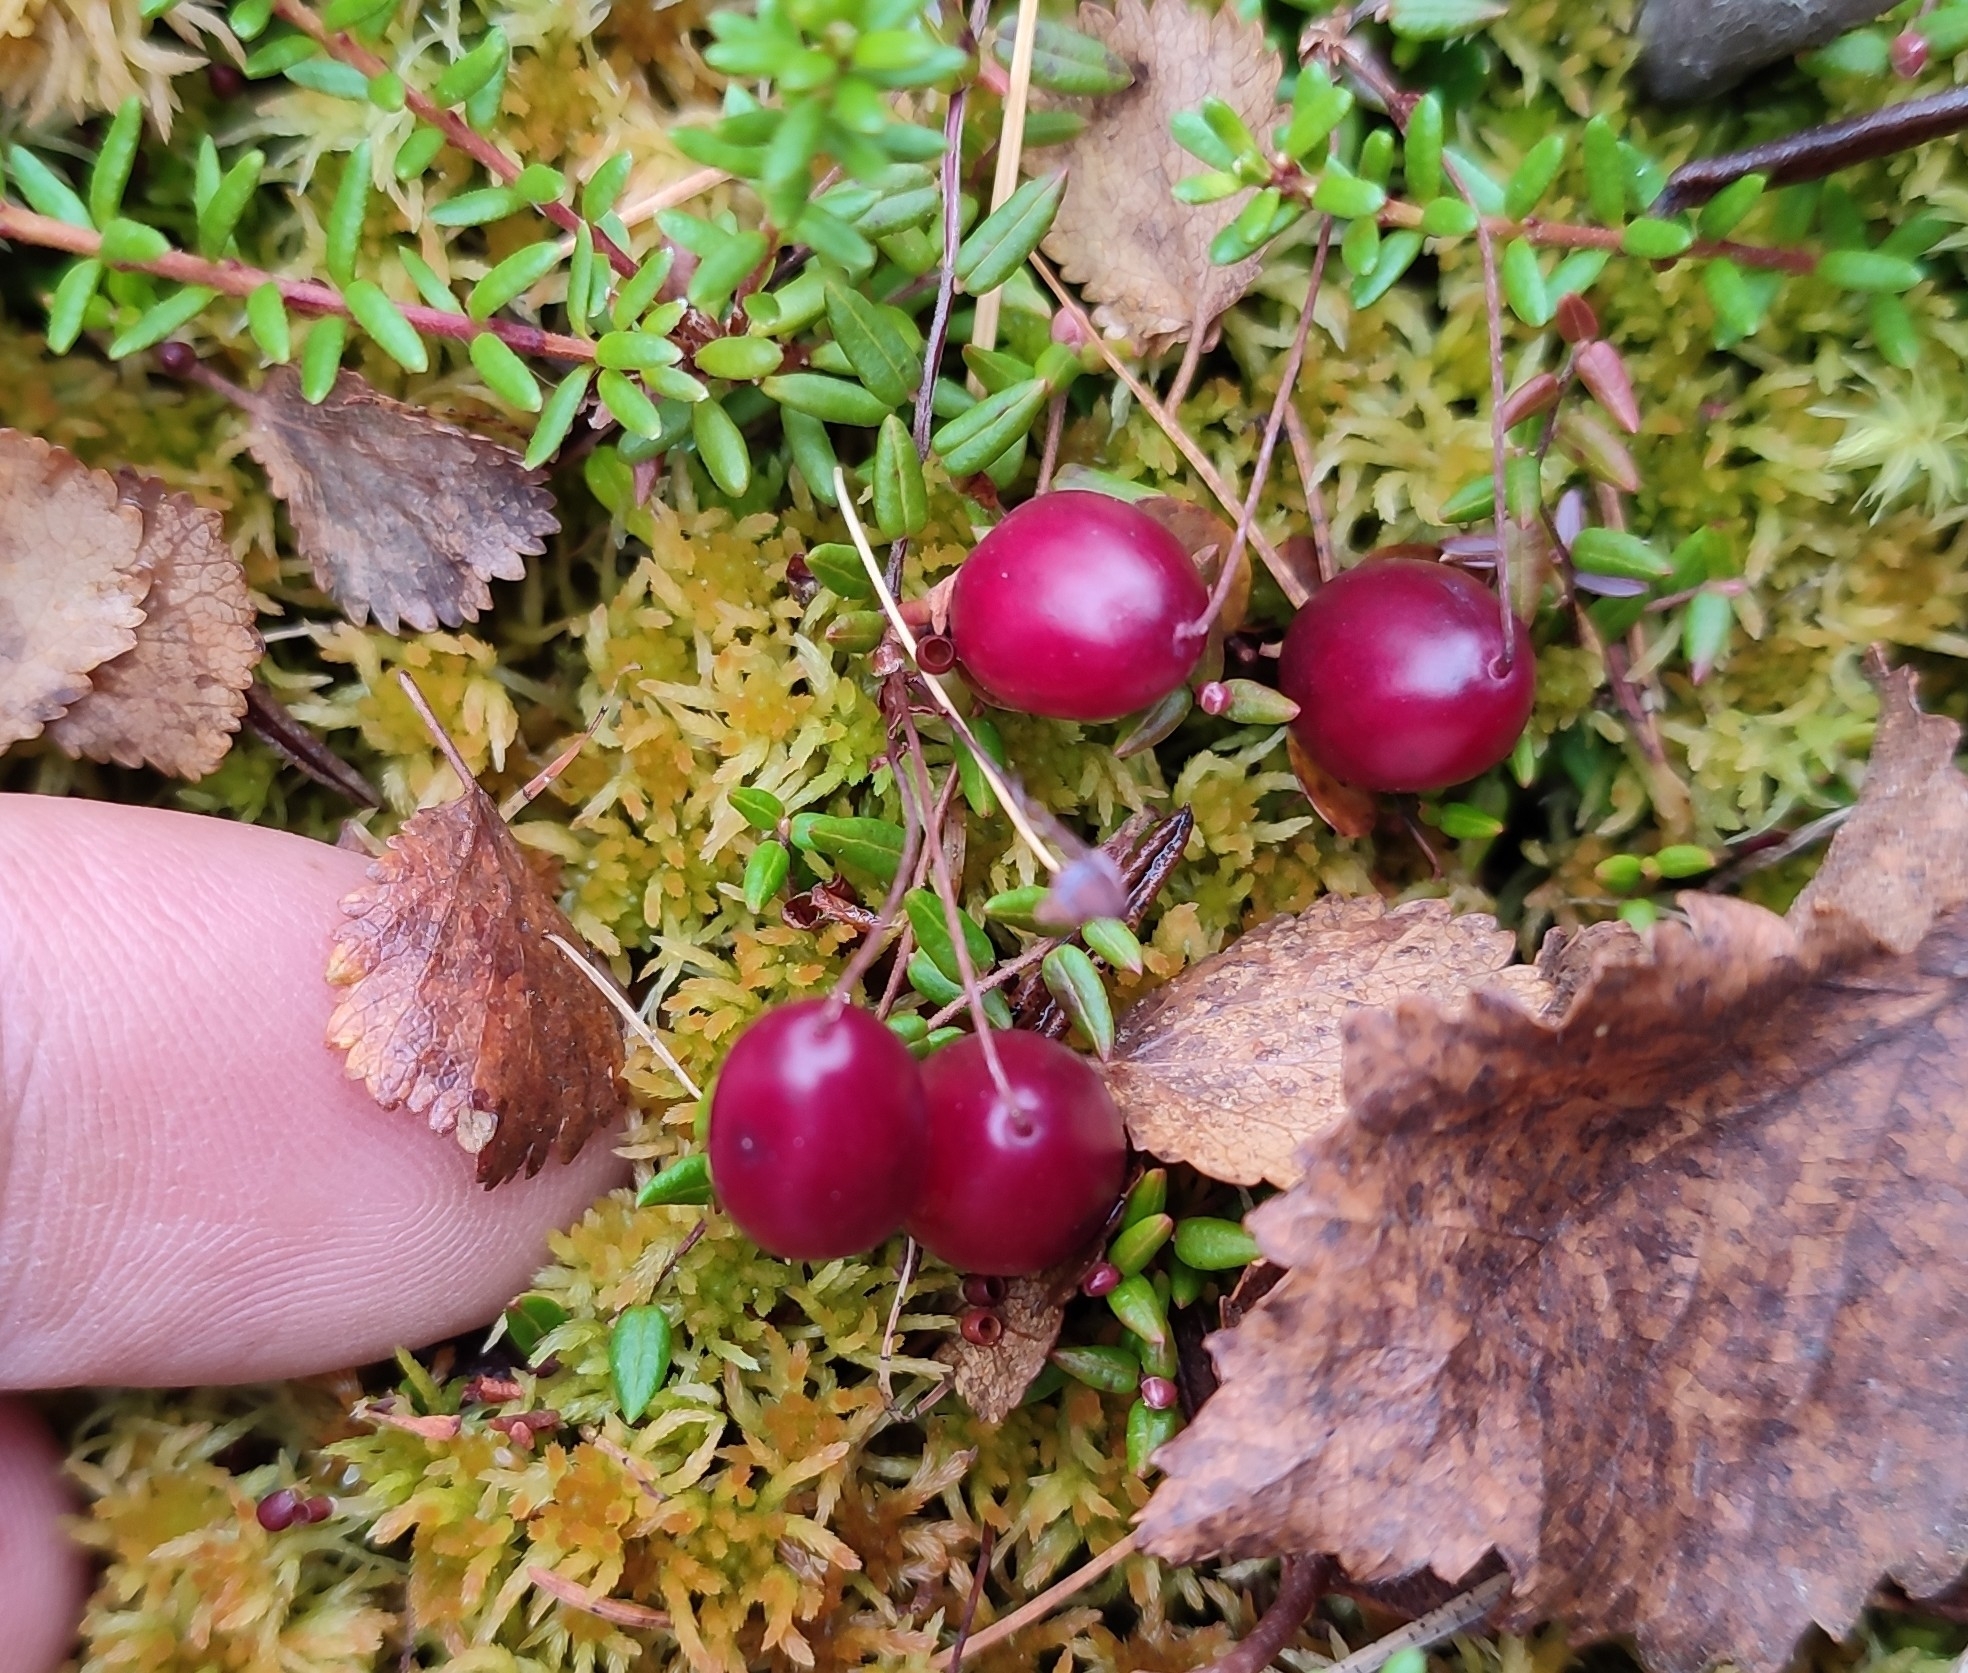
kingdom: Plantae
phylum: Tracheophyta
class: Magnoliopsida
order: Ericales
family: Ericaceae
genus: Vaccinium
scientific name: Vaccinium microcarpum
